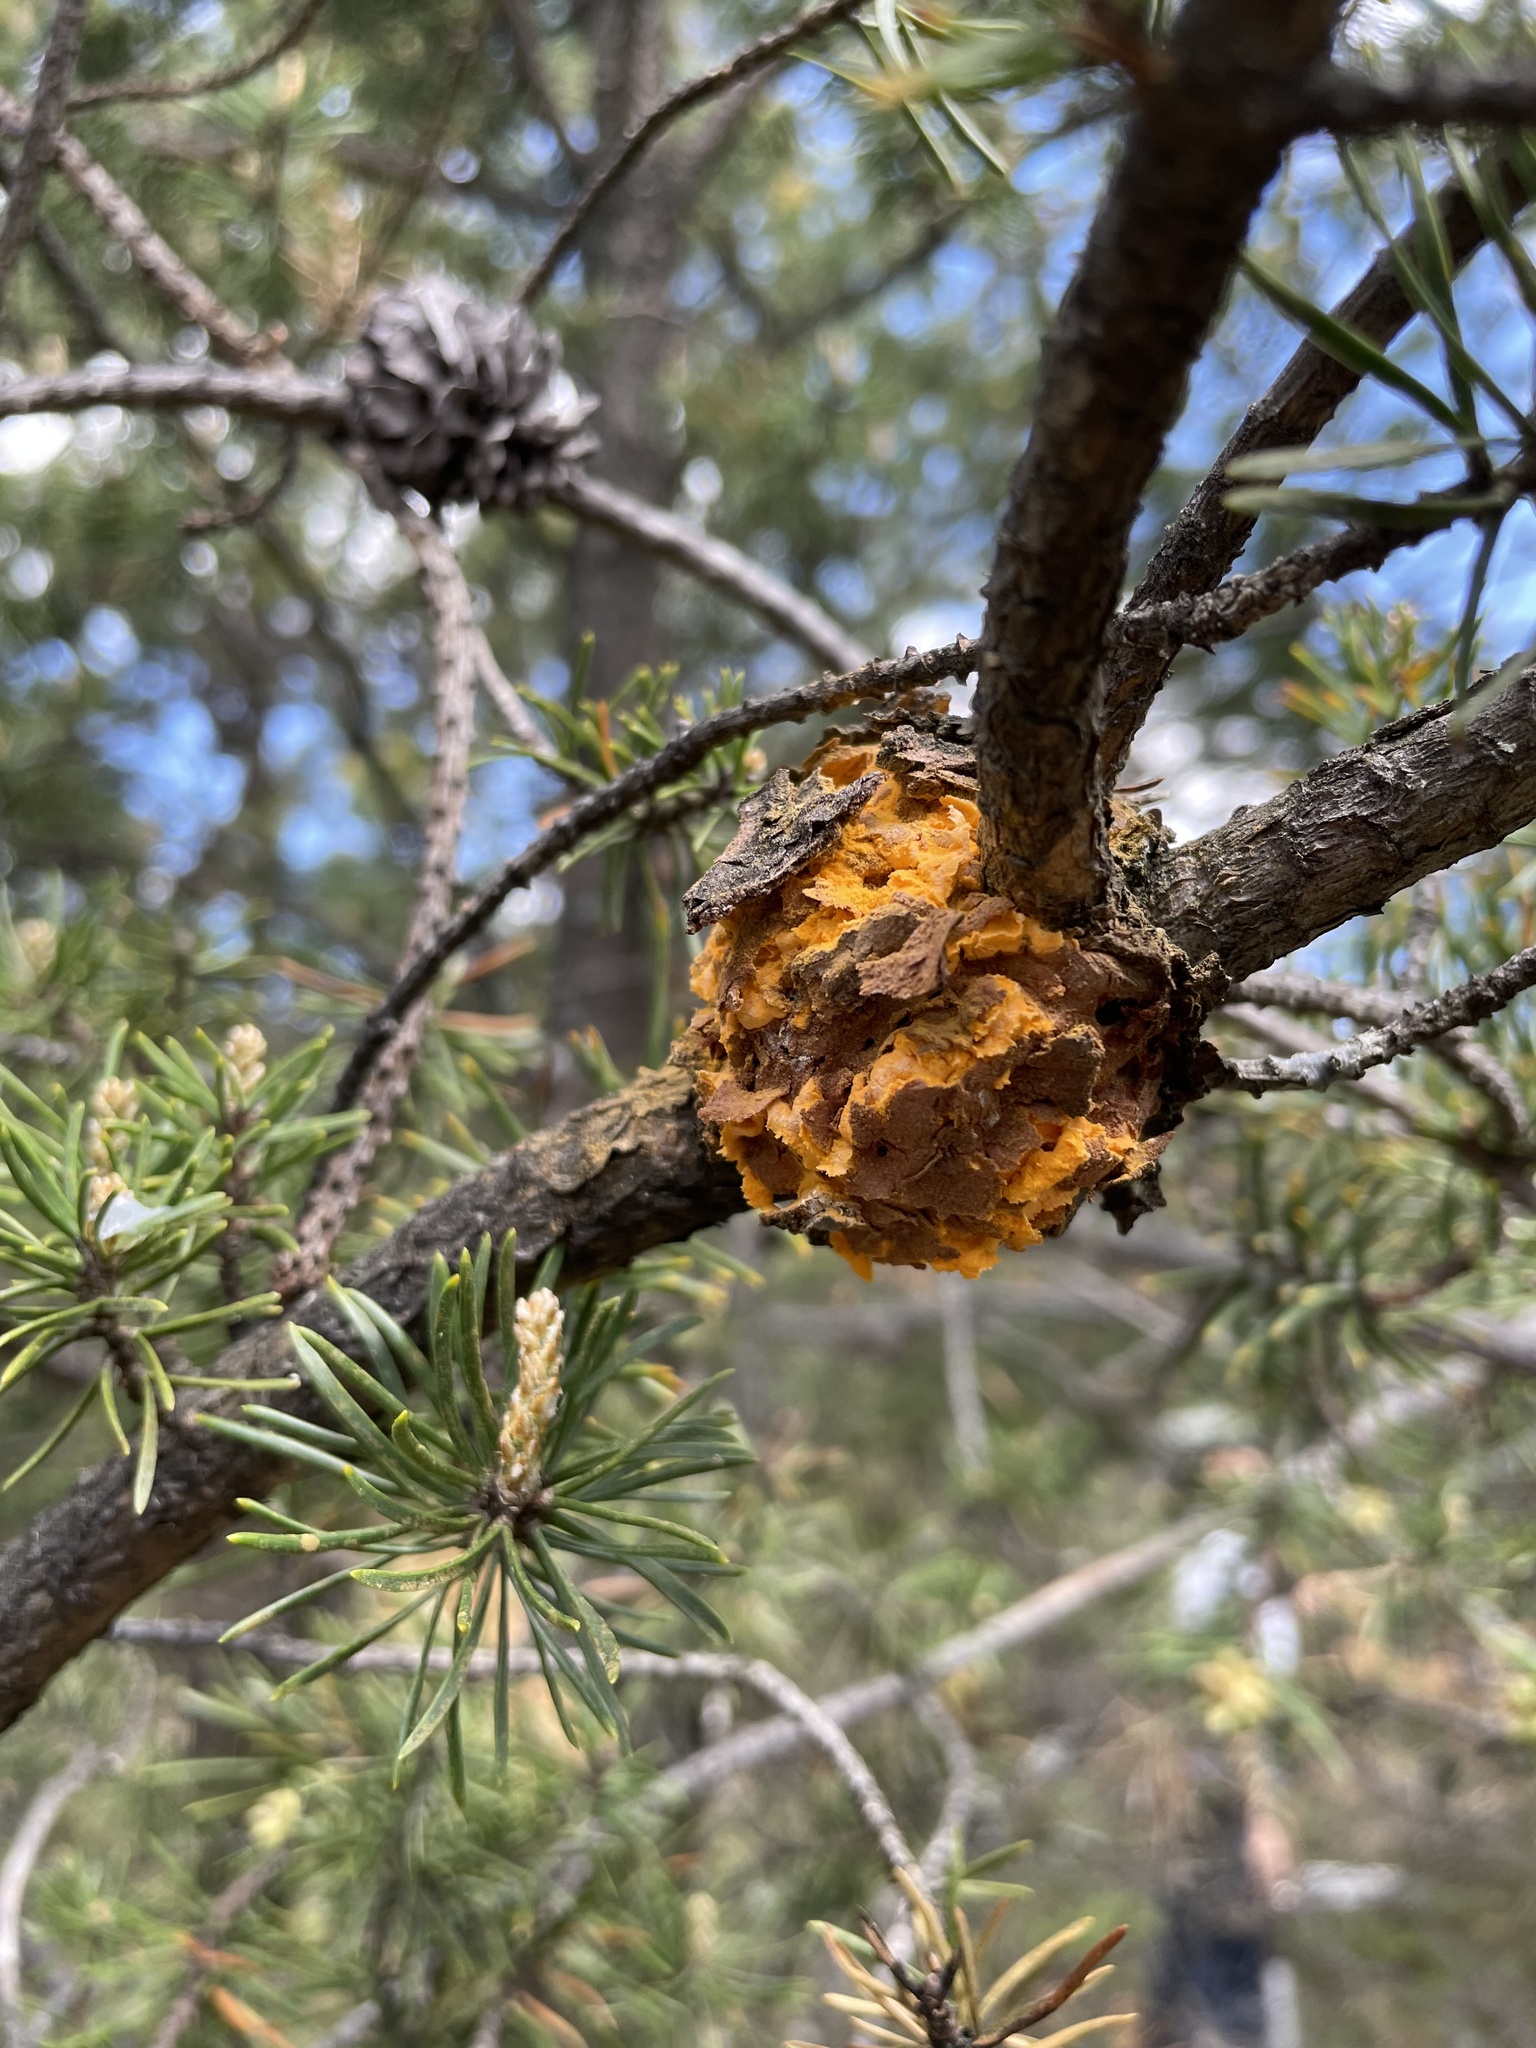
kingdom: Fungi
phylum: Basidiomycota
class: Pucciniomycetes
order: Pucciniales
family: Cronartiaceae
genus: Cronartium
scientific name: Cronartium quercuum
